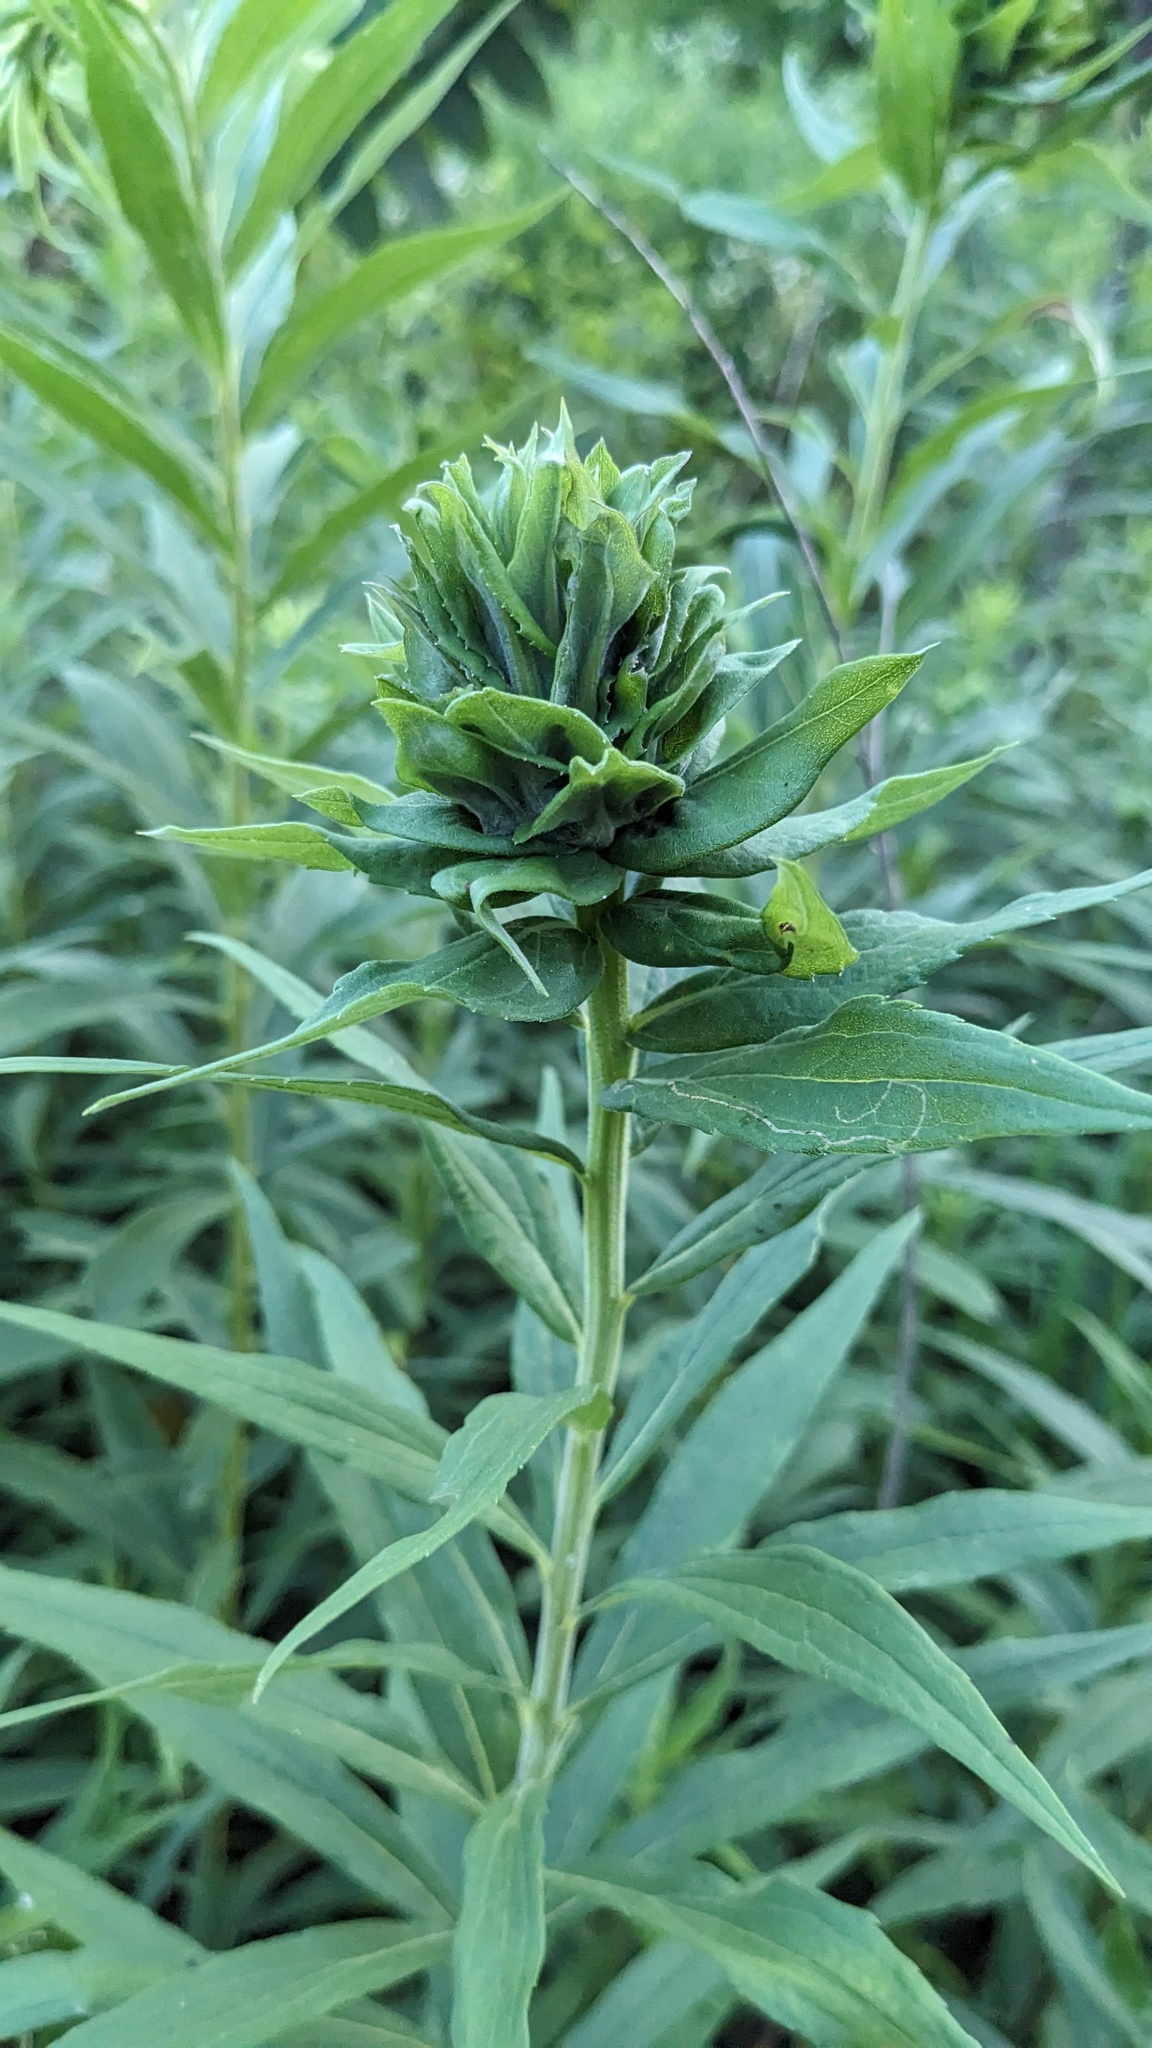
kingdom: Animalia
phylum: Arthropoda
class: Insecta
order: Diptera
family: Cecidomyiidae
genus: Rhopalomyia
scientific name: Rhopalomyia solidaginis
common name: Goldenrod bunch gall midge
